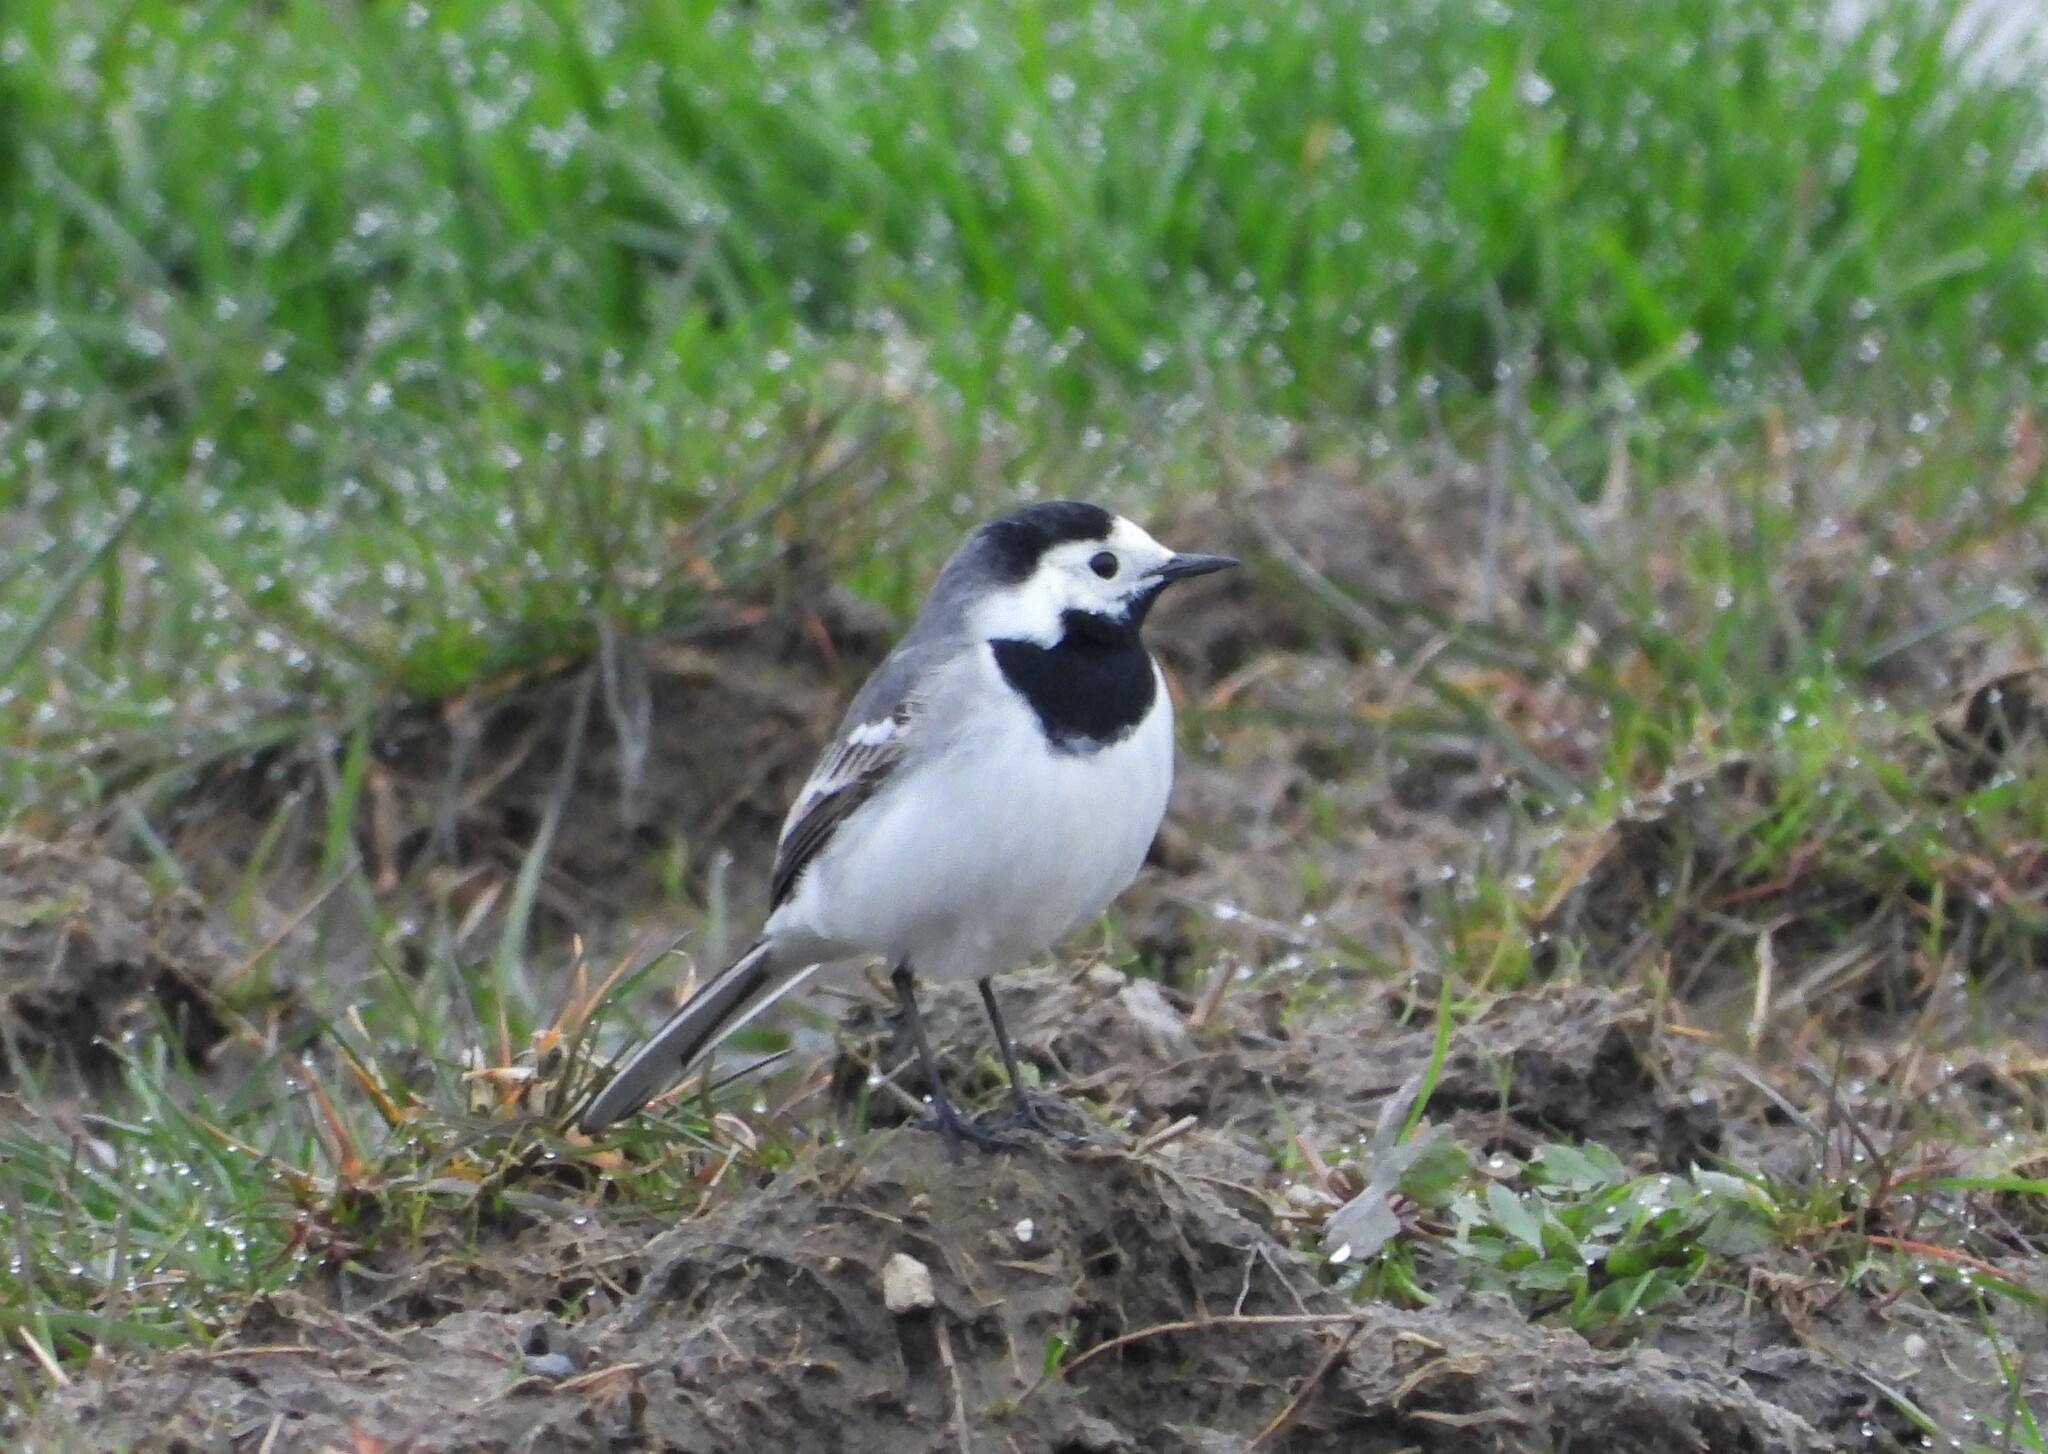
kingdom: Animalia
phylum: Chordata
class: Aves
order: Passeriformes
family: Motacillidae
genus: Motacilla
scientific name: Motacilla alba
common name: White wagtail
